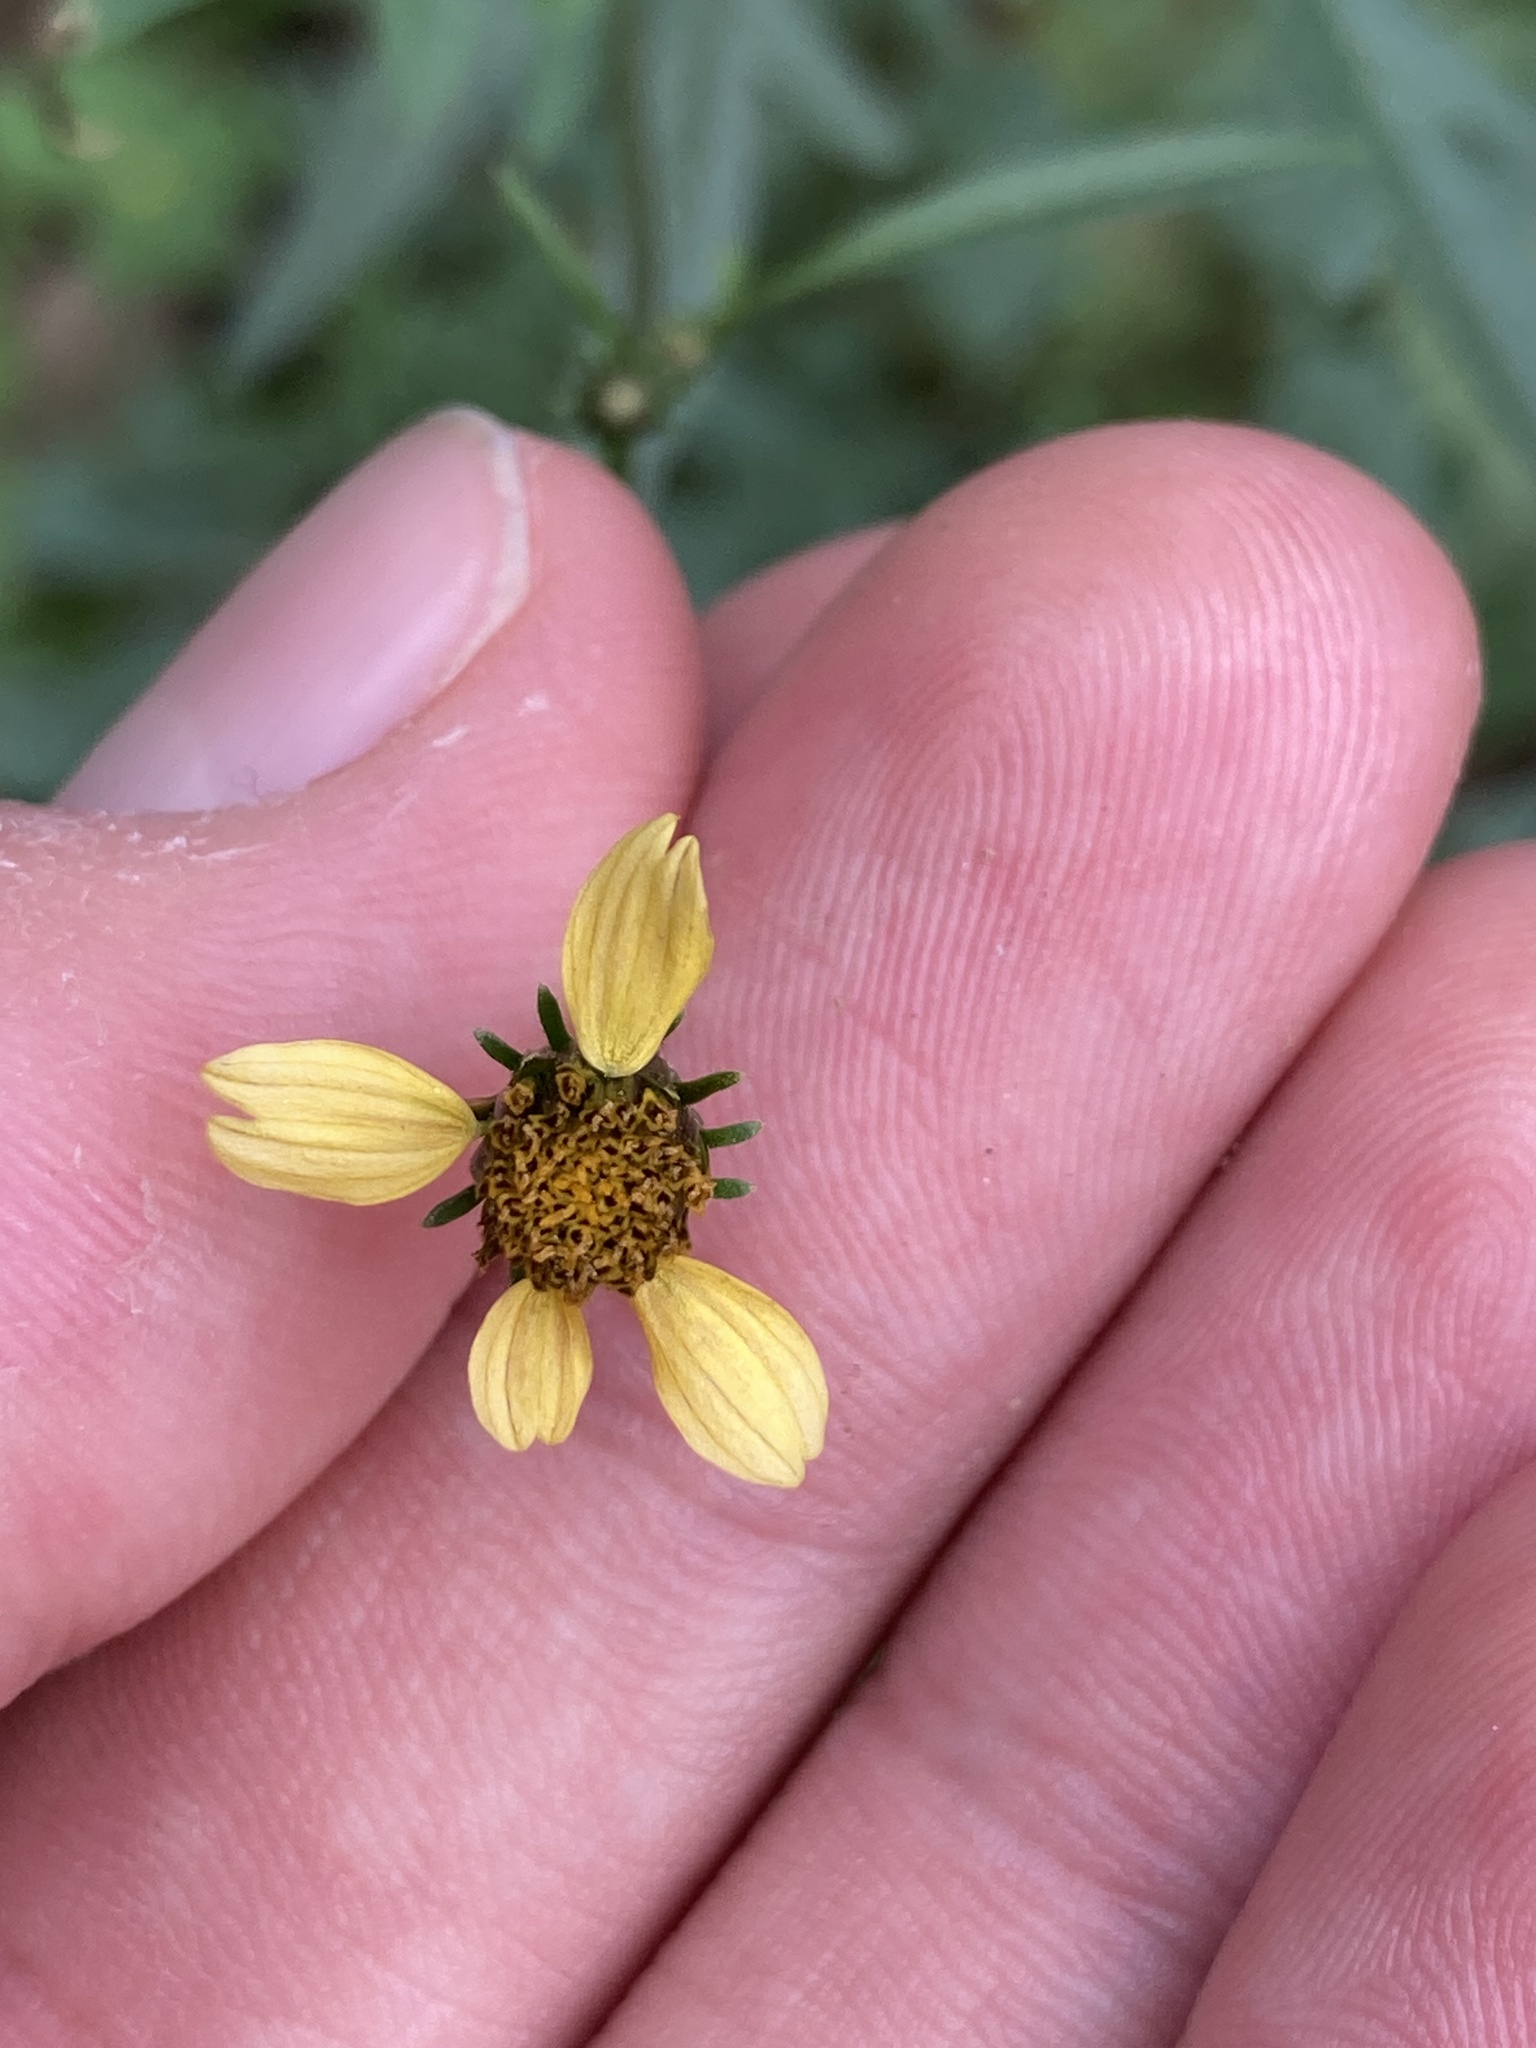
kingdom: Plantae
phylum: Tracheophyta
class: Magnoliopsida
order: Asterales
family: Asteraceae
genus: Bidens
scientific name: Bidens subalternans
